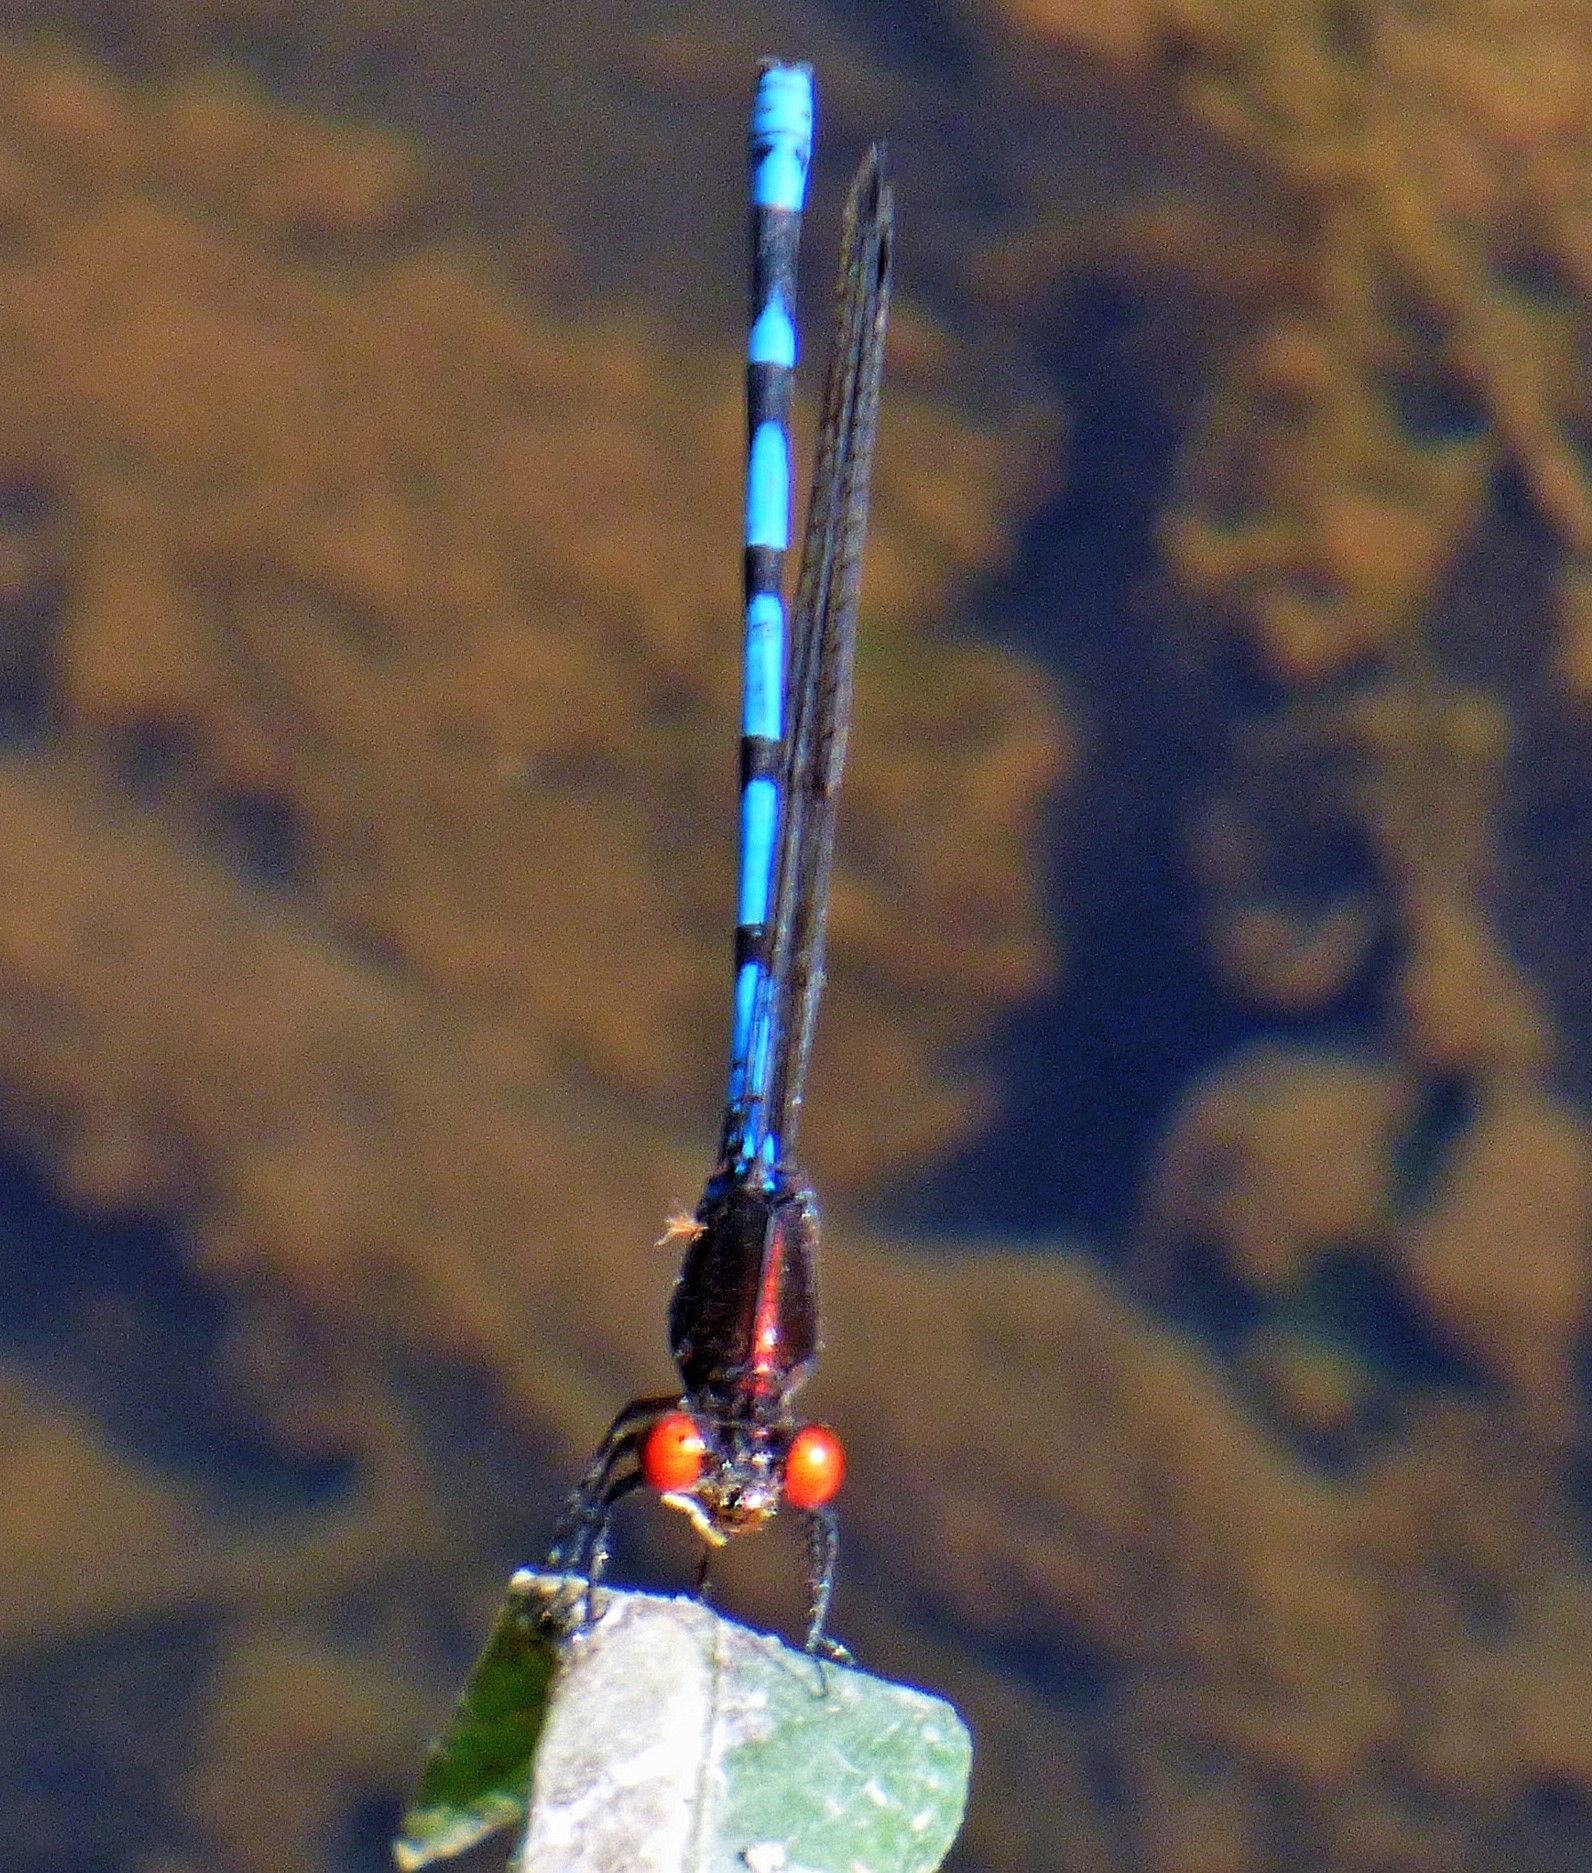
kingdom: Animalia
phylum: Arthropoda
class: Insecta
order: Odonata
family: Coenagrionidae
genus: Argia
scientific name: Argia joergenseni
